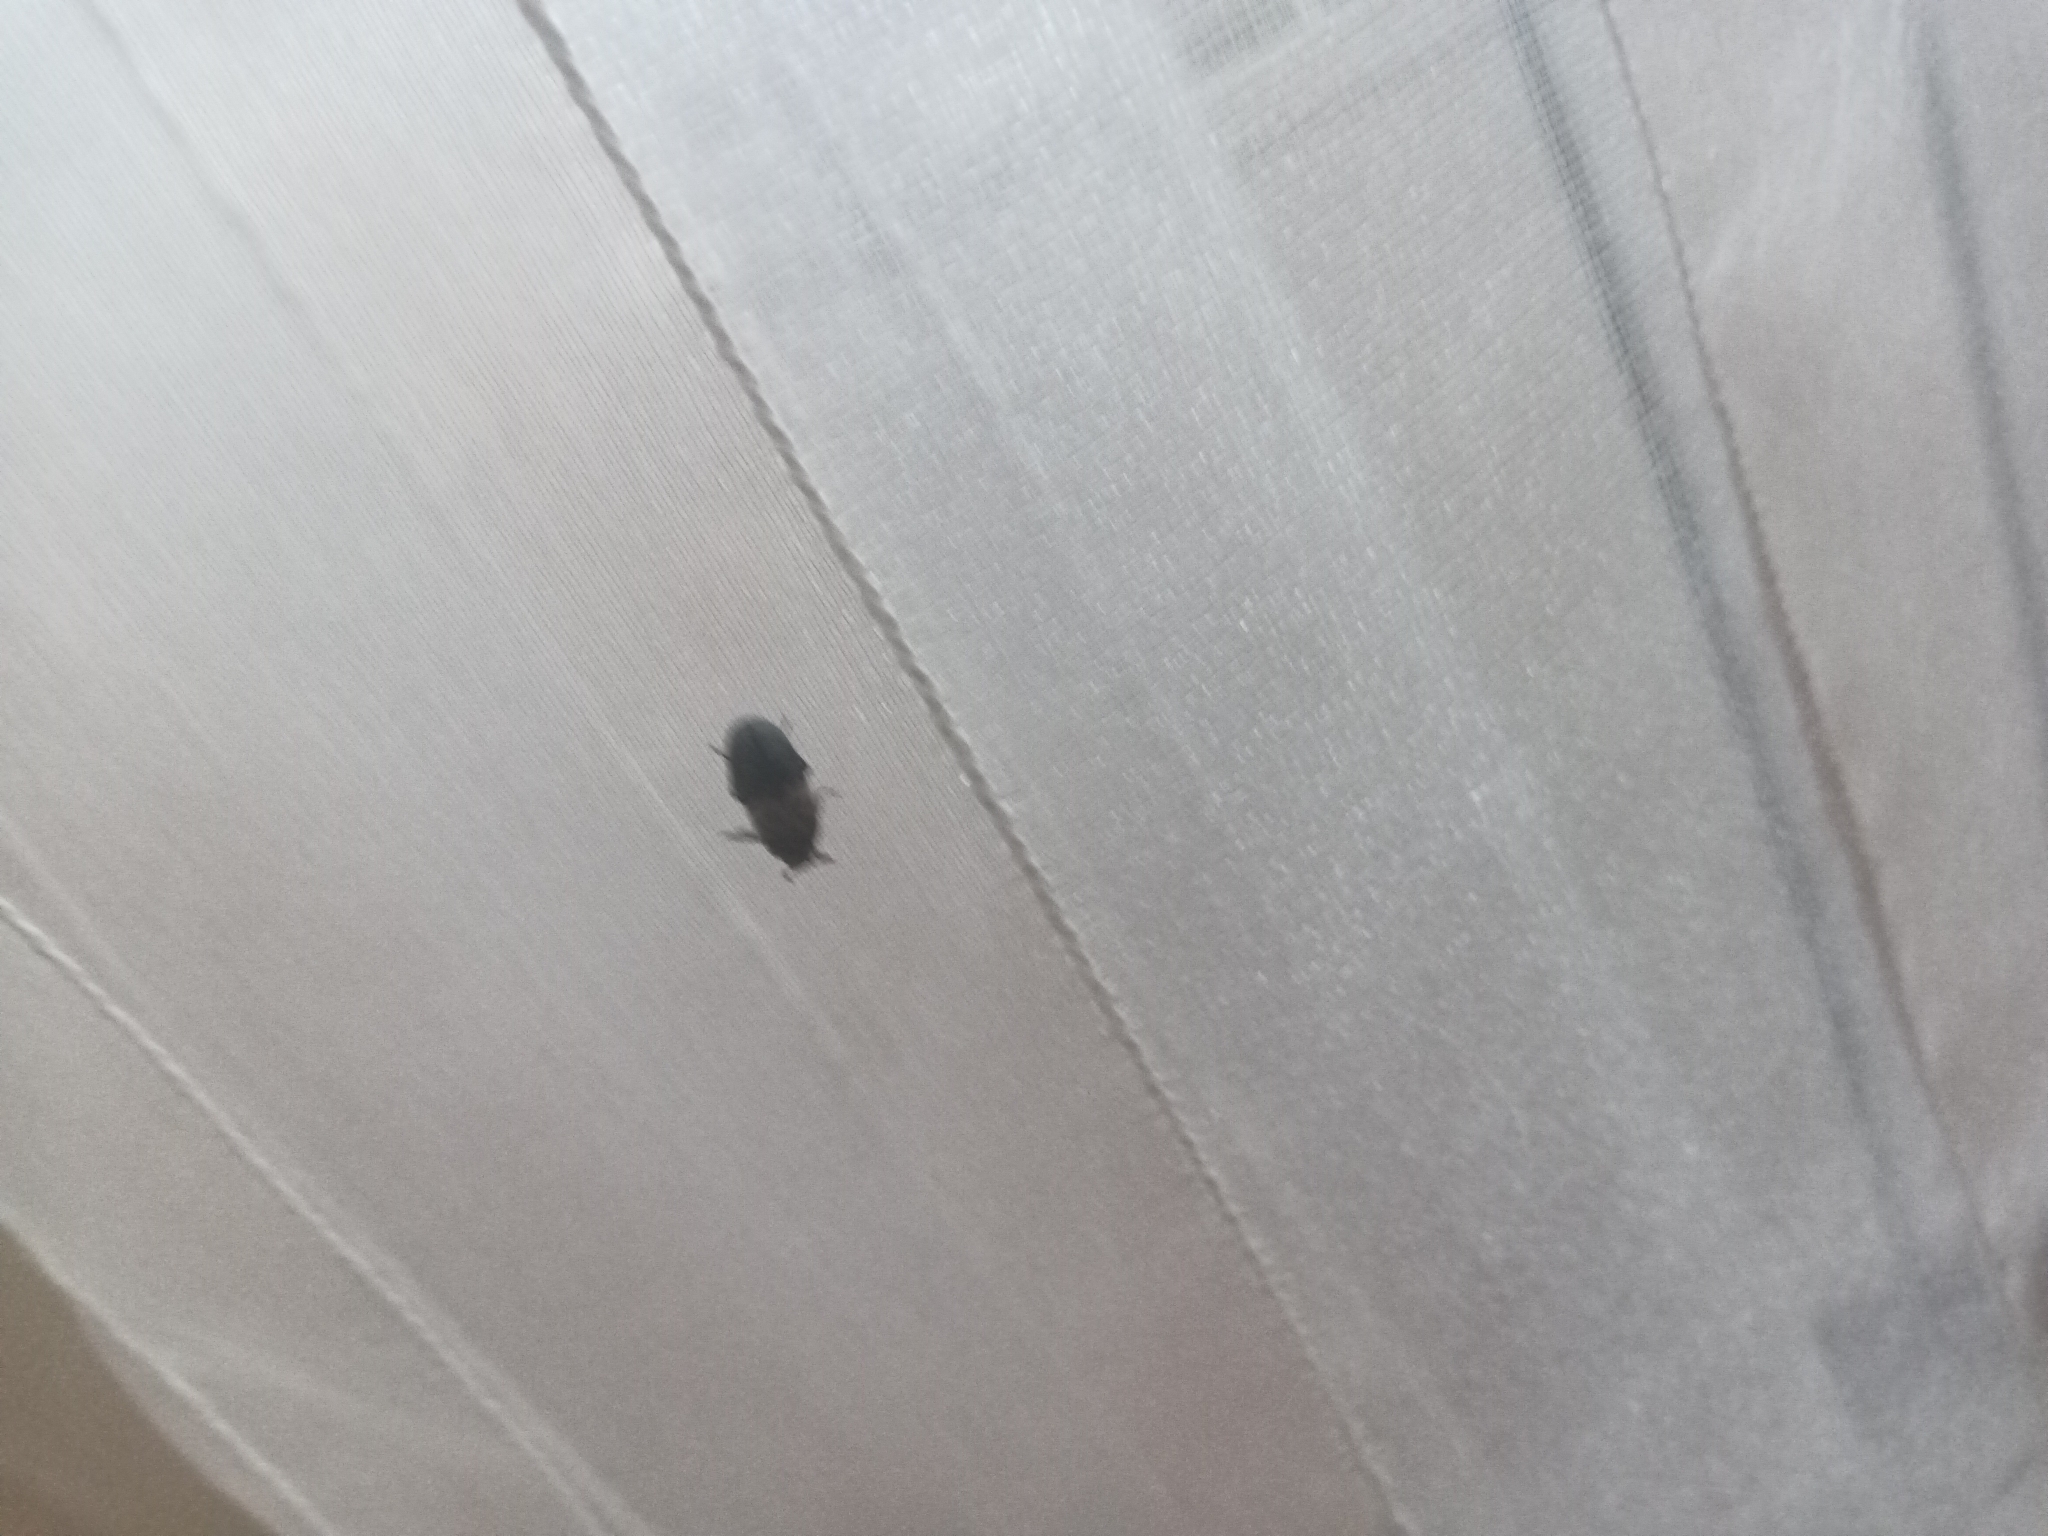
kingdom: Animalia
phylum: Arthropoda
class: Insecta
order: Coleoptera
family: Dermestidae
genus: Dermestes
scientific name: Dermestes lardarius
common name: Larder beetle
